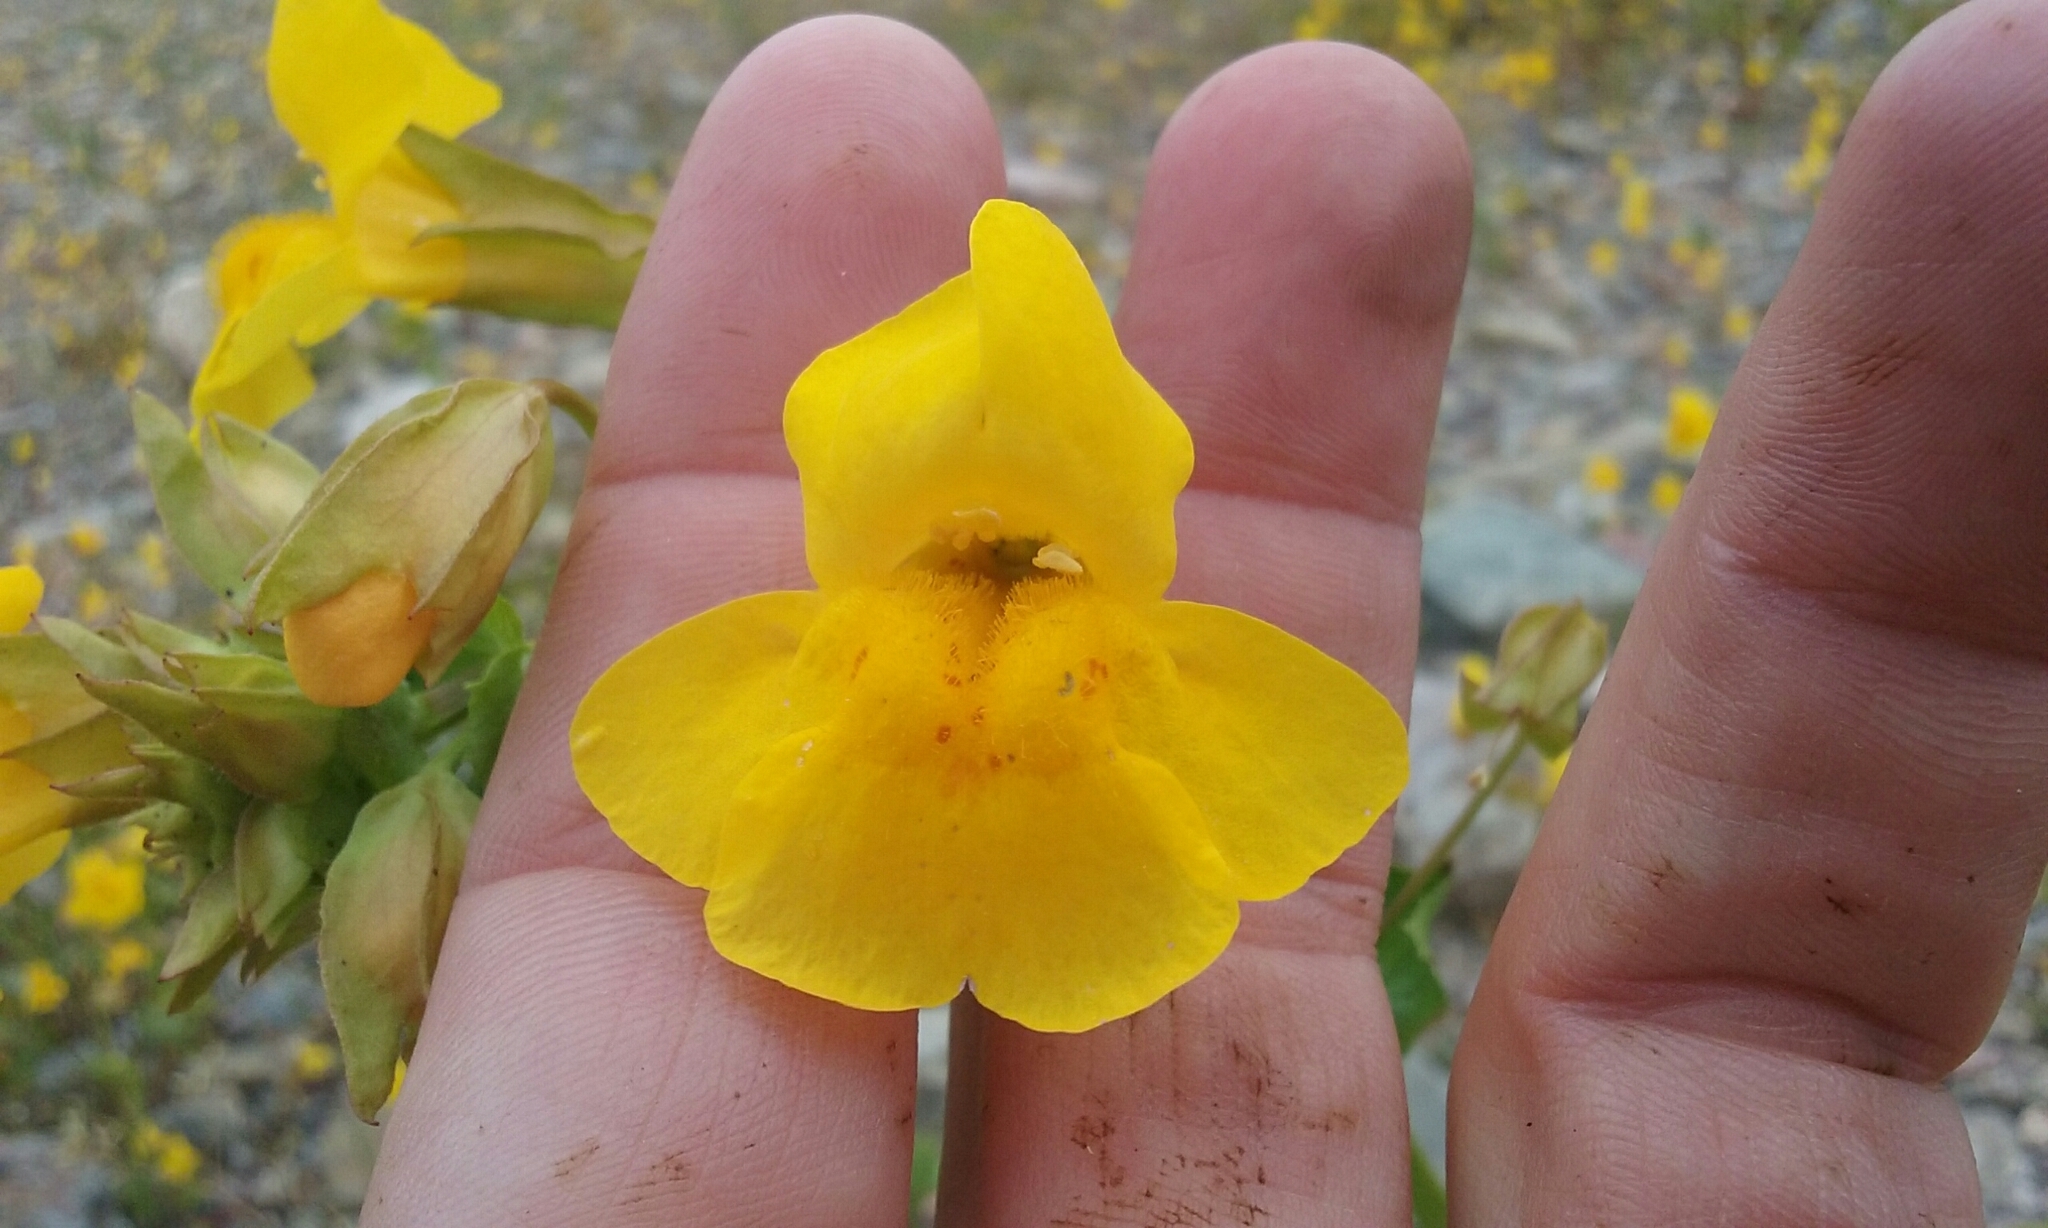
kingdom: Plantae
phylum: Tracheophyta
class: Magnoliopsida
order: Lamiales
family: Phrymaceae
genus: Erythranthe
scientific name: Erythranthe guttata
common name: Monkeyflower
